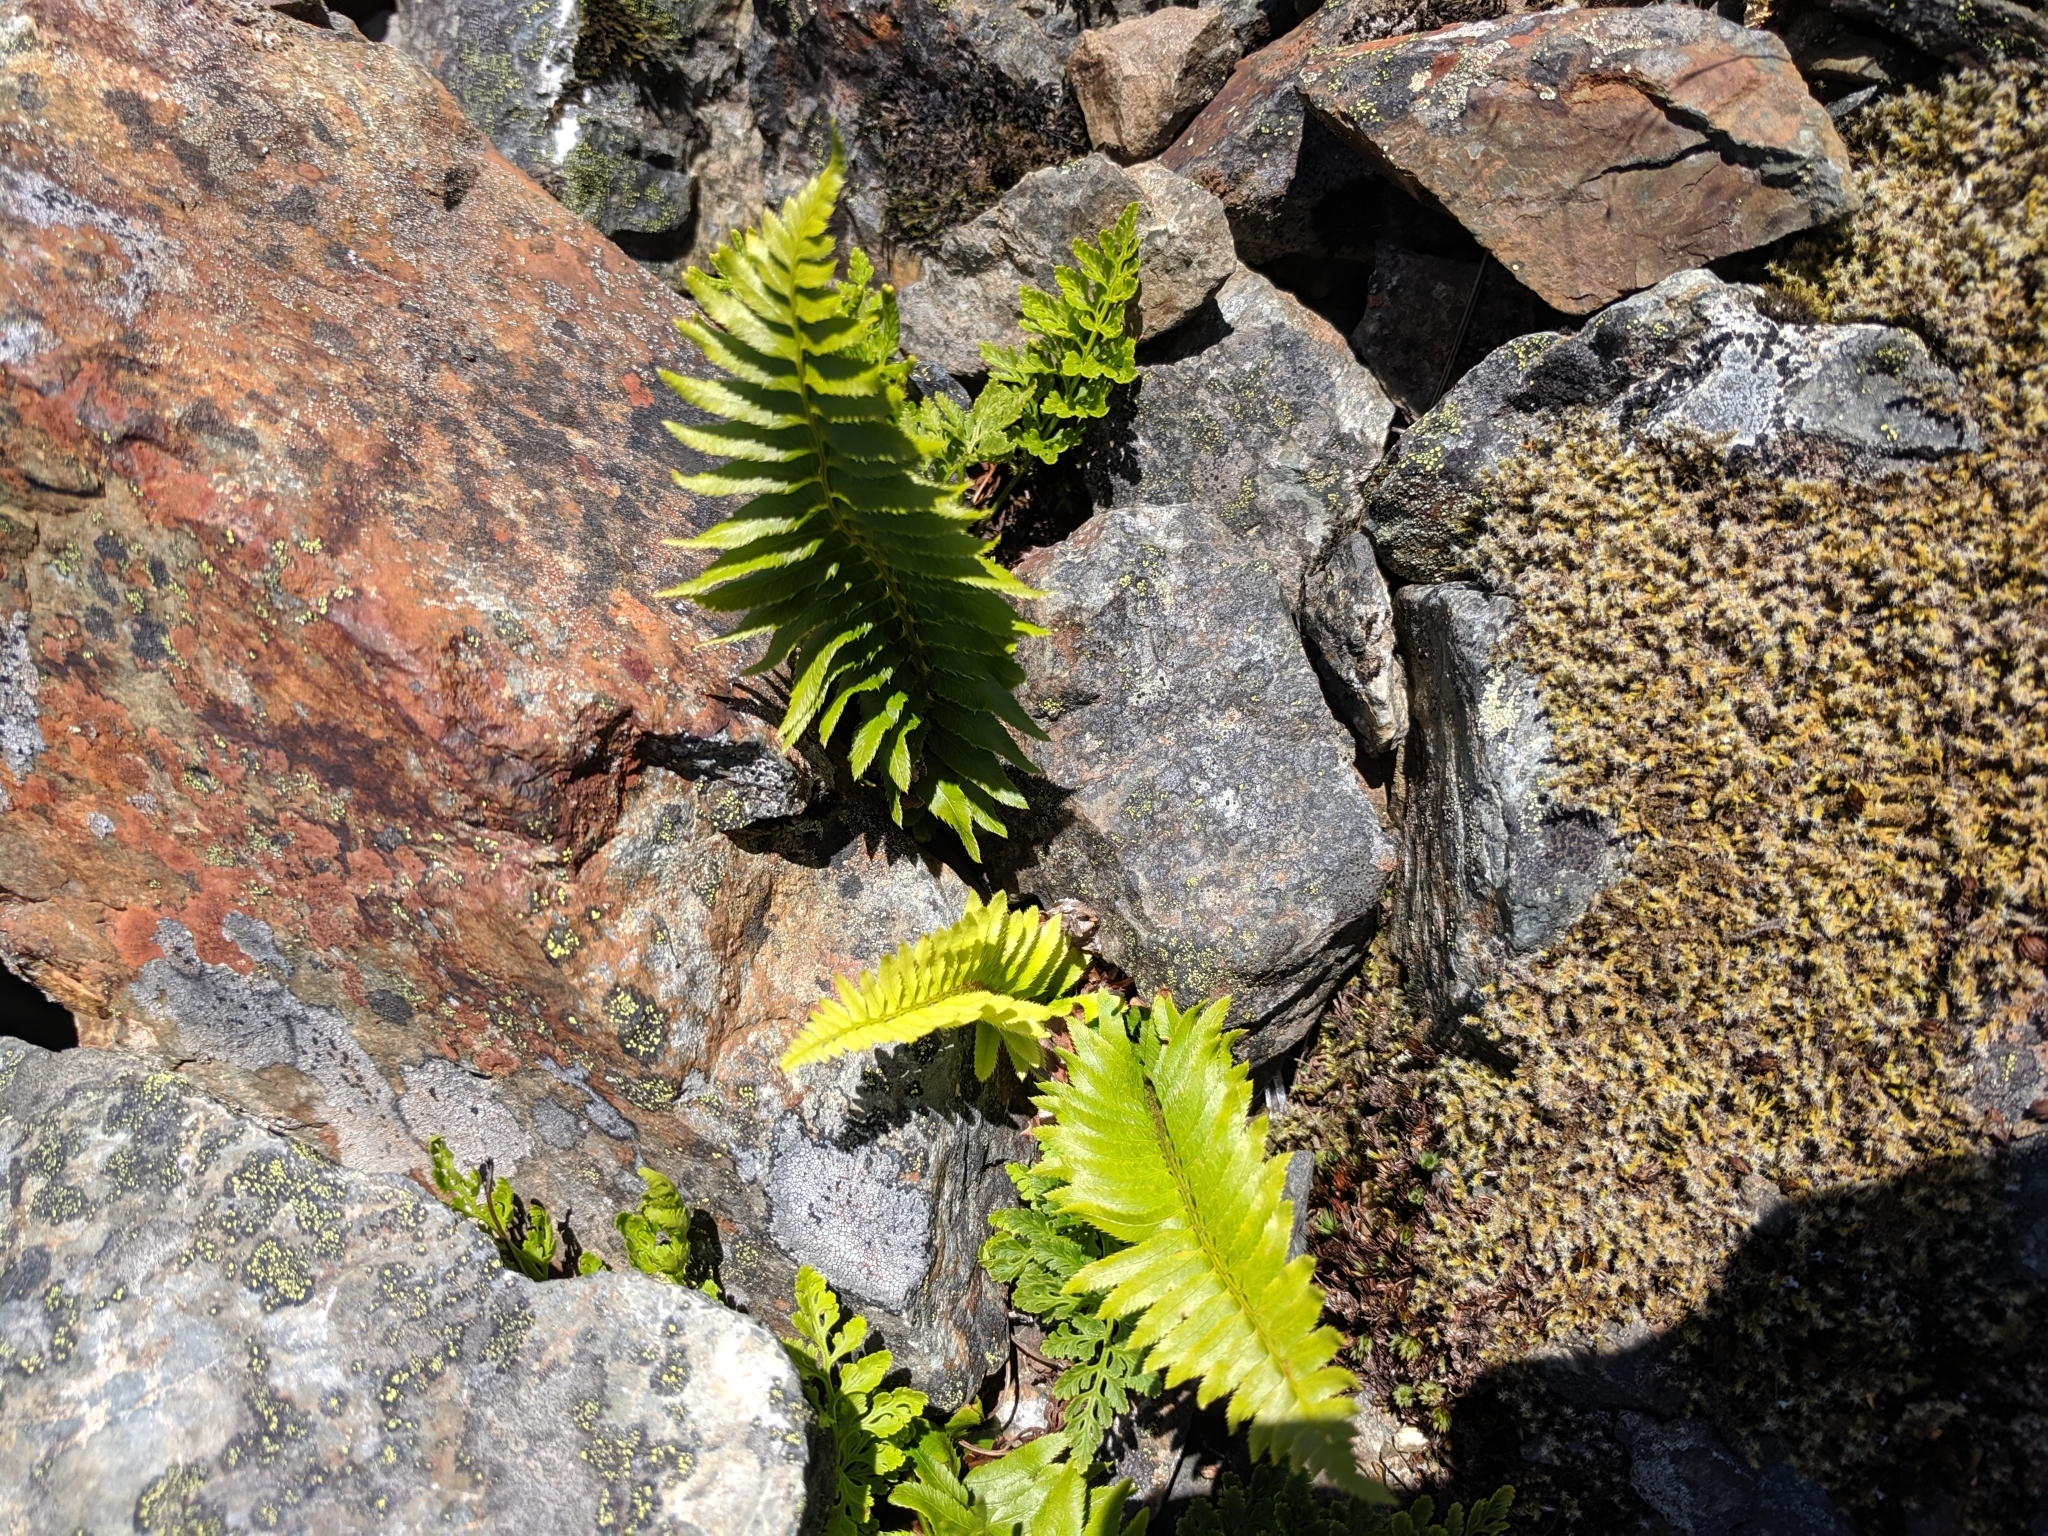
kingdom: Plantae
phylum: Tracheophyta
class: Polypodiopsida
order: Polypodiales
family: Dryopteridaceae
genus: Polystichum
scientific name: Polystichum munitum
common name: Western sword-fern
